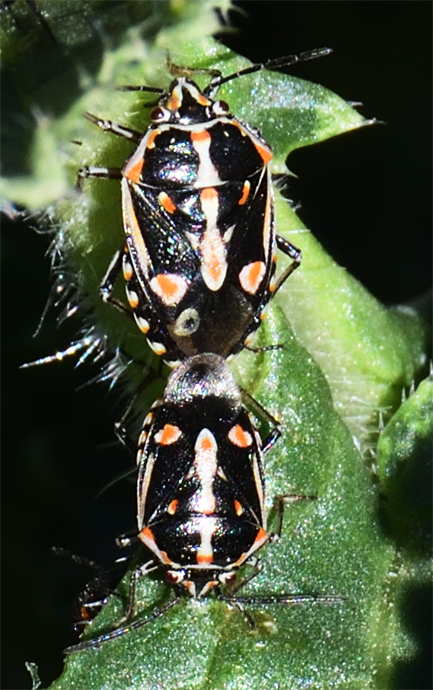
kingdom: Animalia
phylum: Arthropoda
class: Insecta
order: Hemiptera
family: Pentatomidae
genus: Bagrada
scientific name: Bagrada hilaris
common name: Bagrada bug
